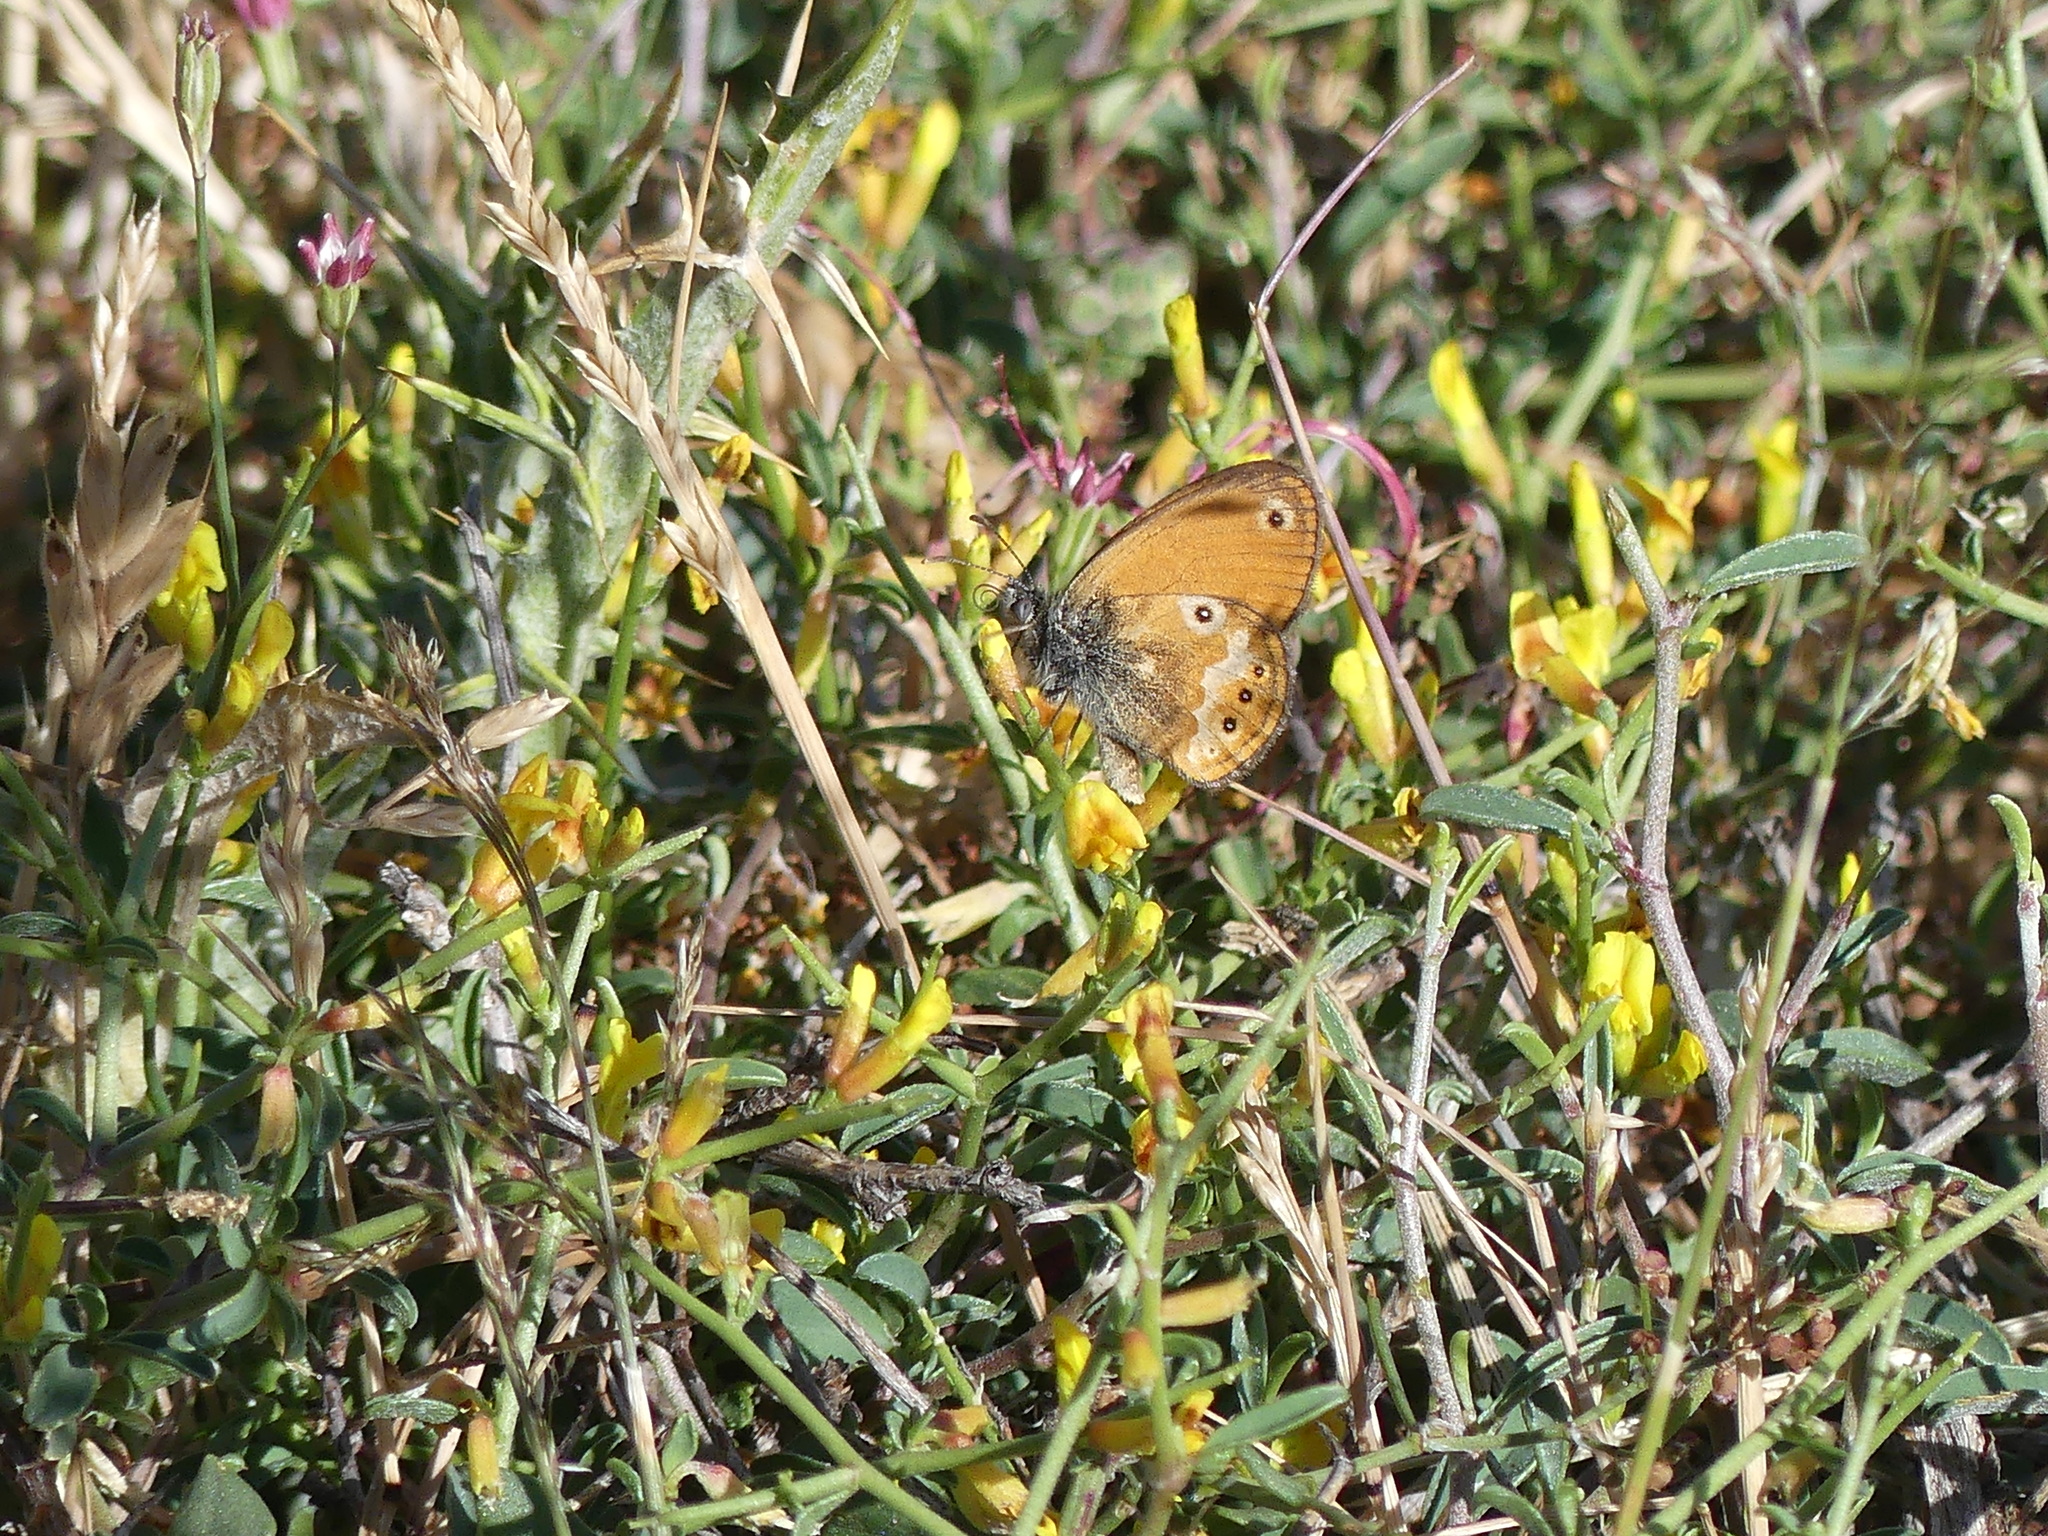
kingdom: Animalia
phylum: Arthropoda
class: Insecta
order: Lepidoptera
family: Nymphalidae
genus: Coenonympha
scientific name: Coenonympha corinna
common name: Corsican heath
